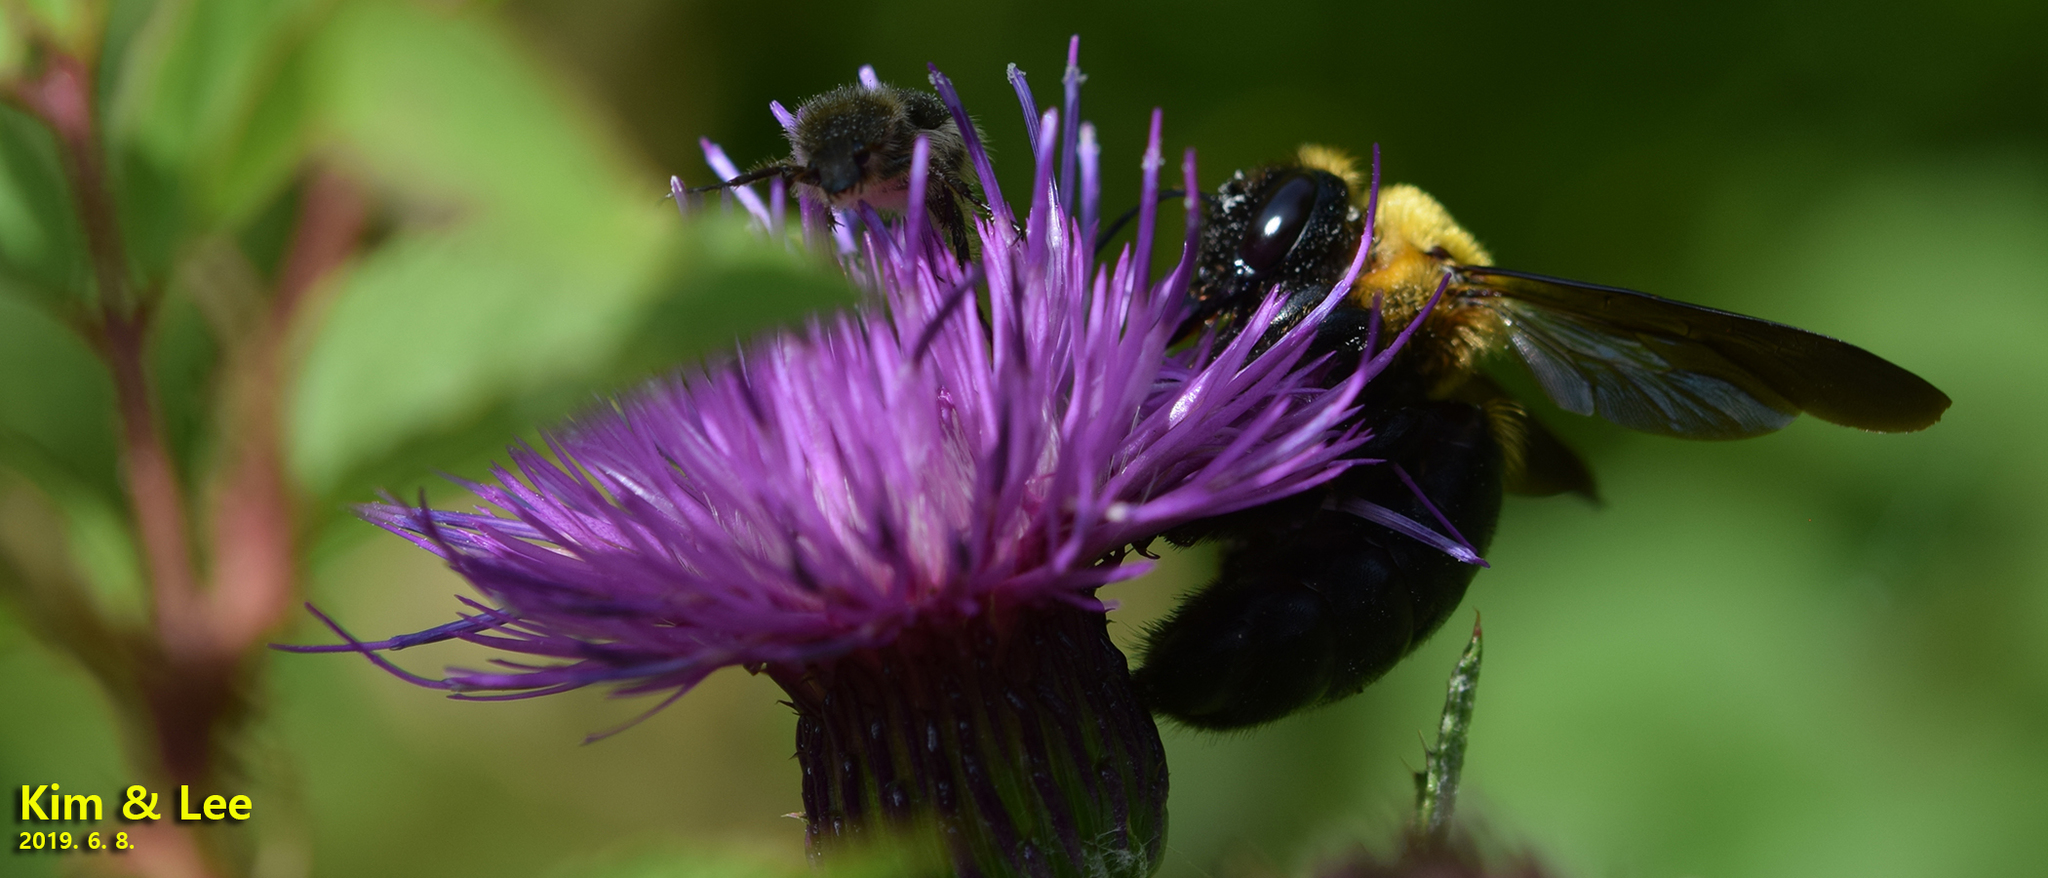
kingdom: Animalia
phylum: Arthropoda
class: Insecta
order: Hymenoptera
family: Apidae
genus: Xylocopa
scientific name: Xylocopa appendiculata
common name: Japanese carpenter bee
